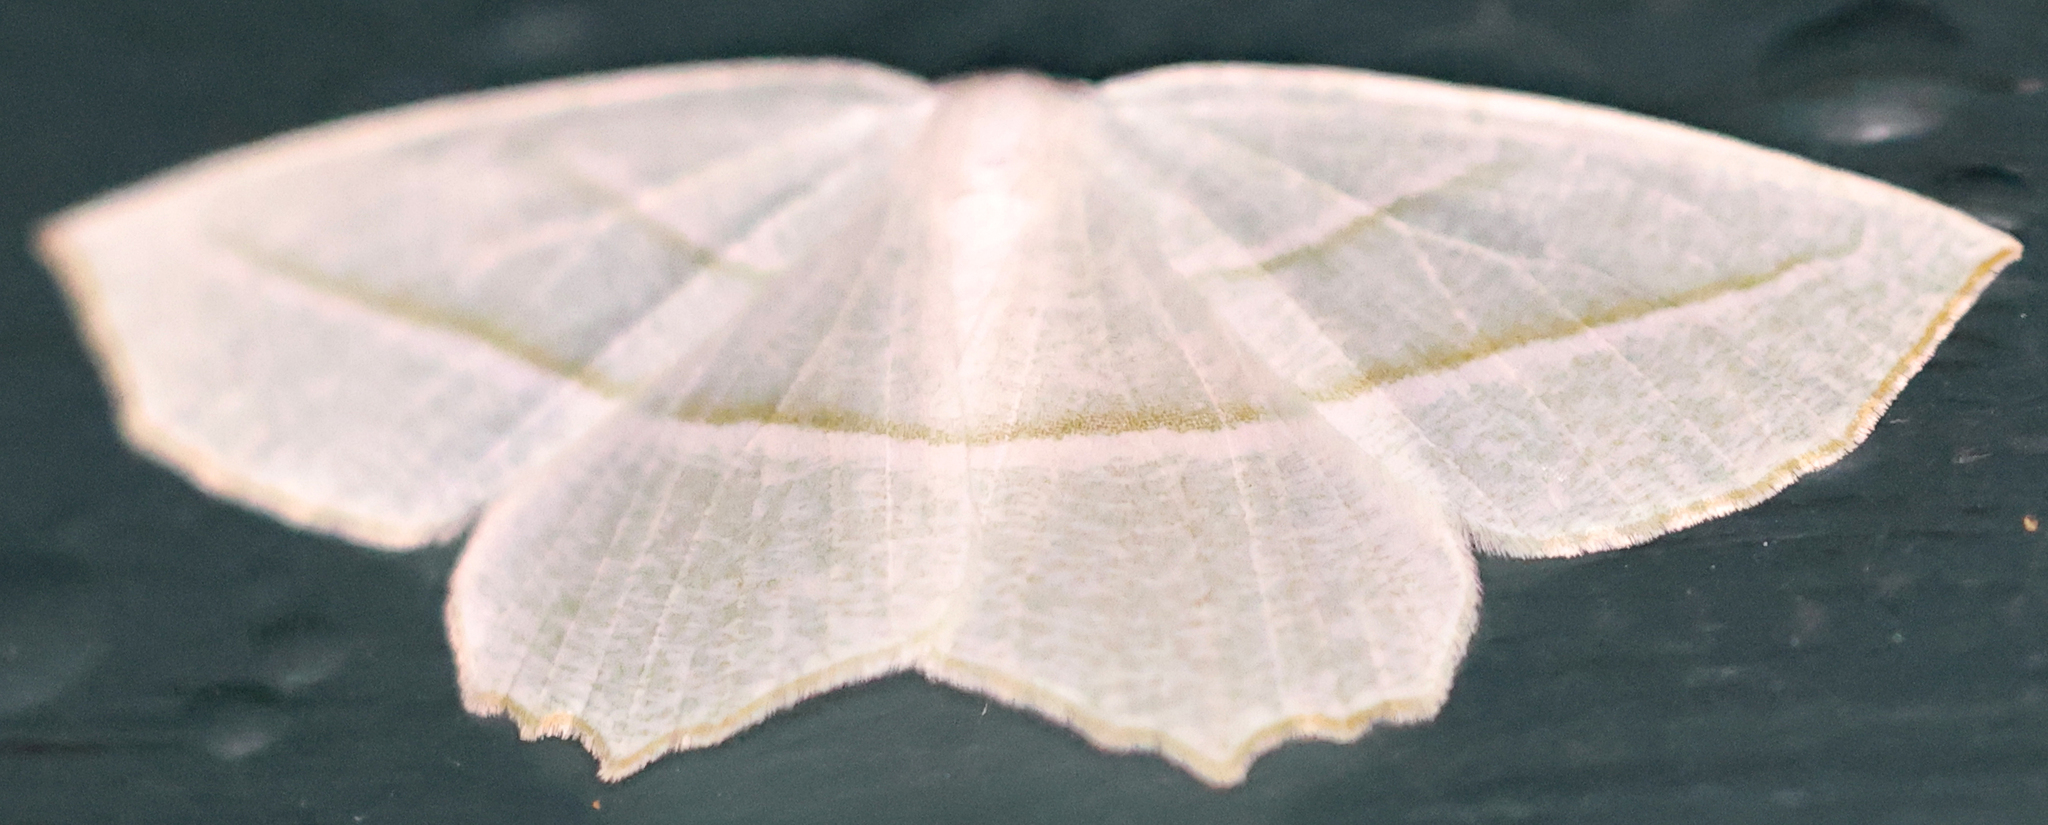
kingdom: Animalia
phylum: Arthropoda
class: Insecta
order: Lepidoptera
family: Geometridae
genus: Campaea
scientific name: Campaea perlata
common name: Fringed looper
